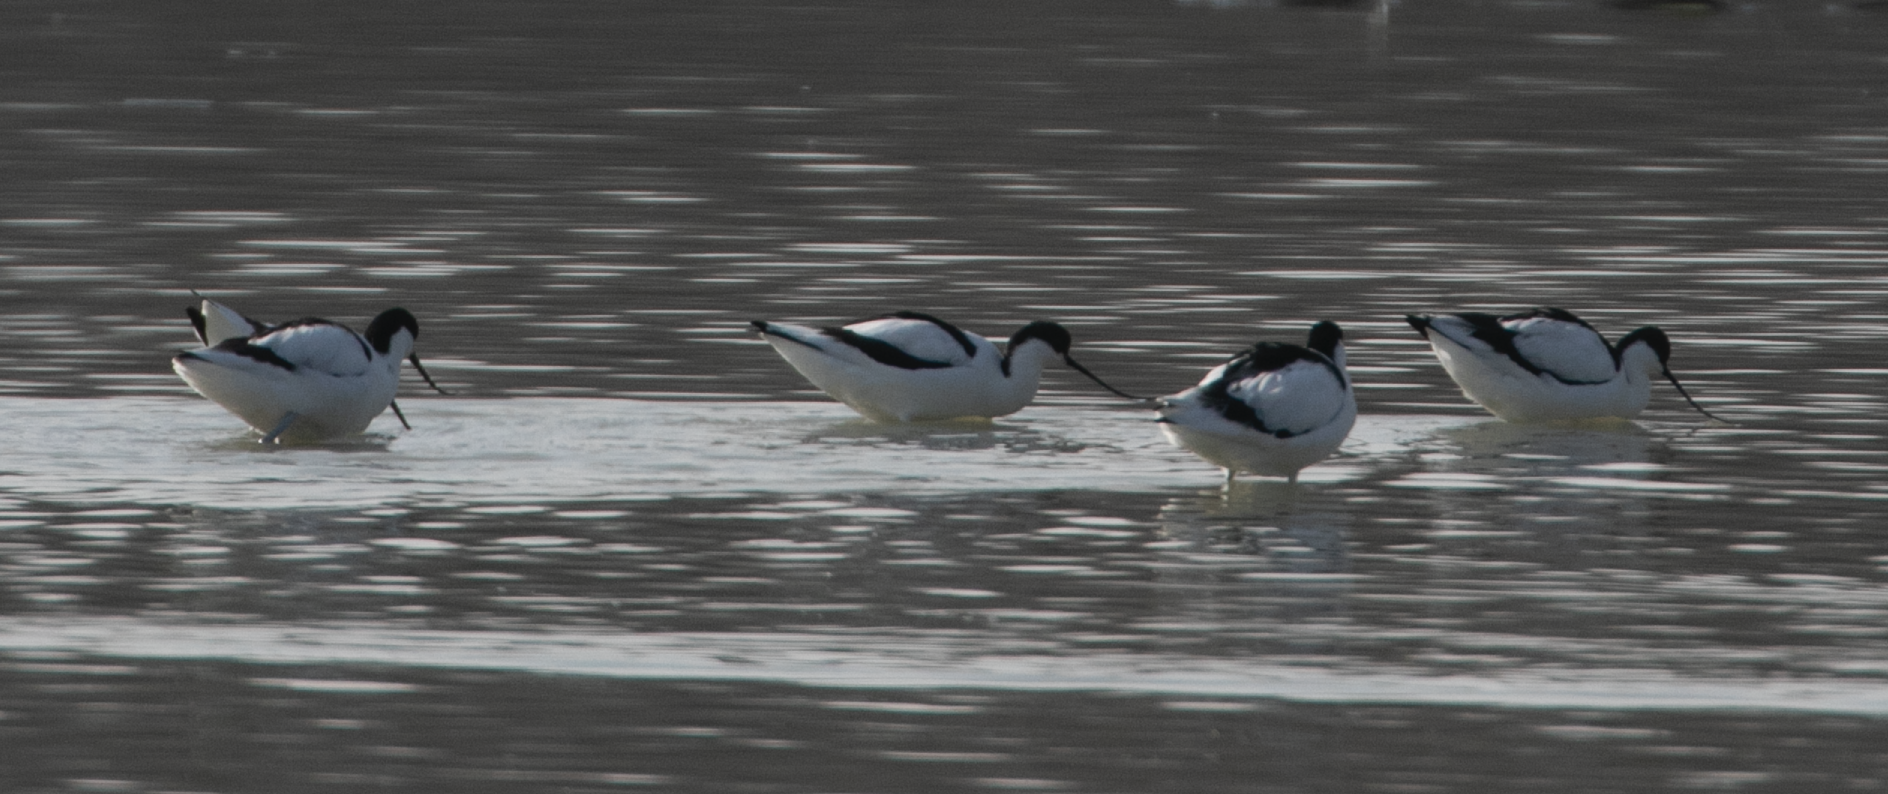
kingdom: Animalia
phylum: Chordata
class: Aves
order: Charadriiformes
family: Recurvirostridae
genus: Recurvirostra
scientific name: Recurvirostra avosetta
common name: Pied avocet
